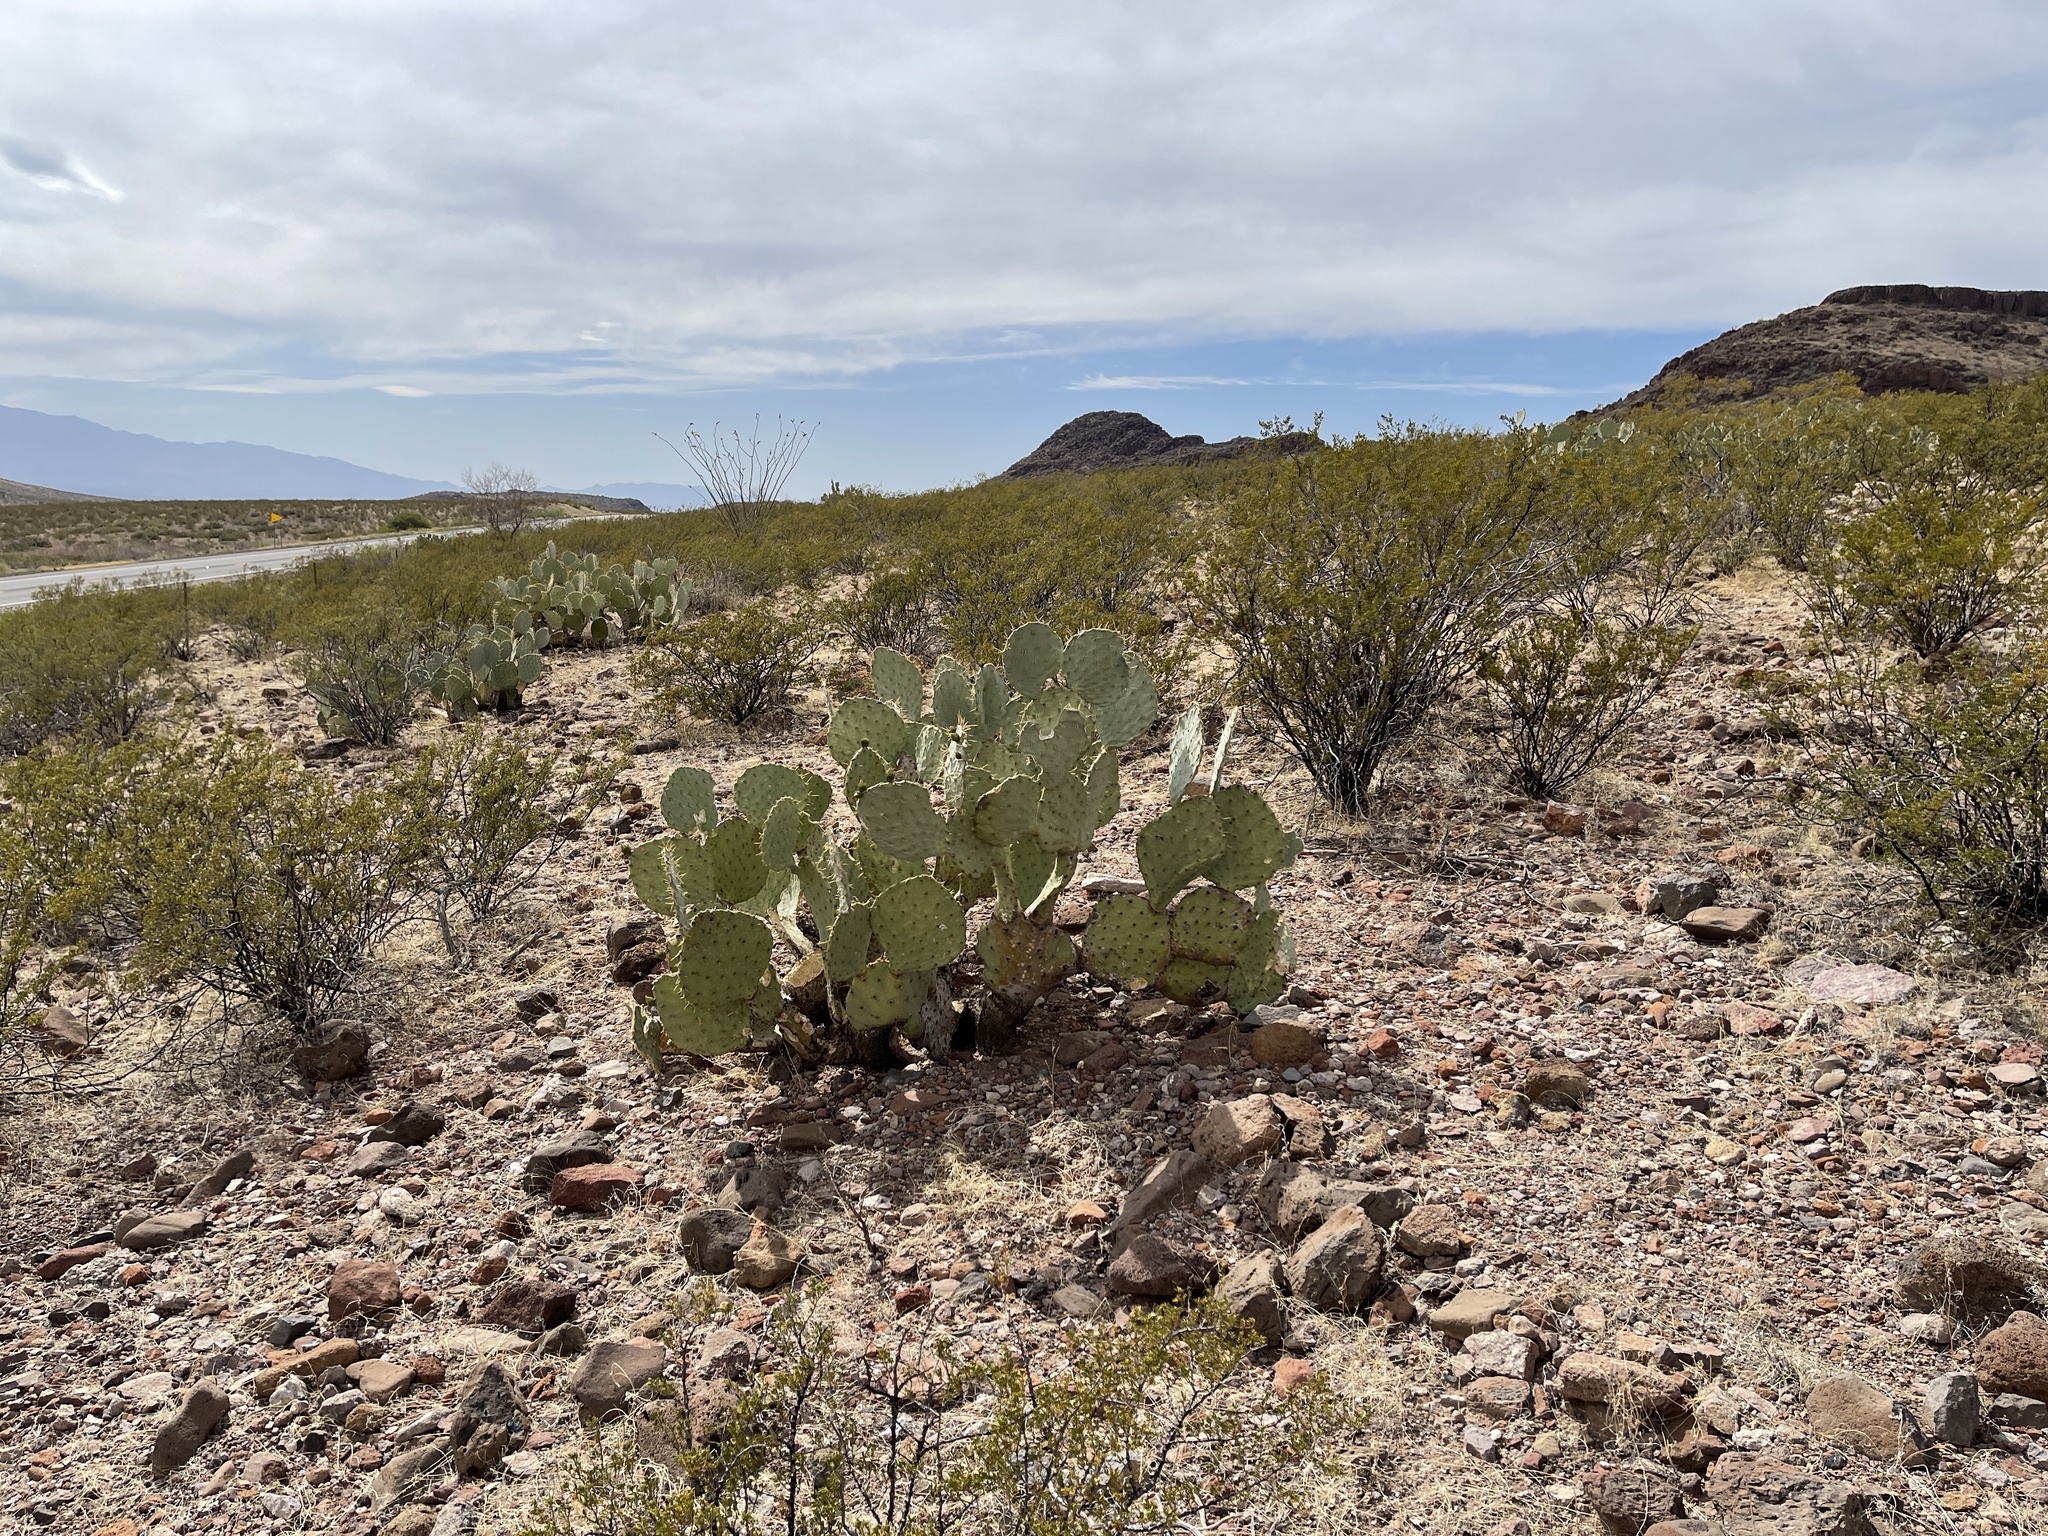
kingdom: Plantae
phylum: Tracheophyta
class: Magnoliopsida
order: Caryophyllales
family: Cactaceae
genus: Opuntia
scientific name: Opuntia engelmannii
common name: Cactus-apple
